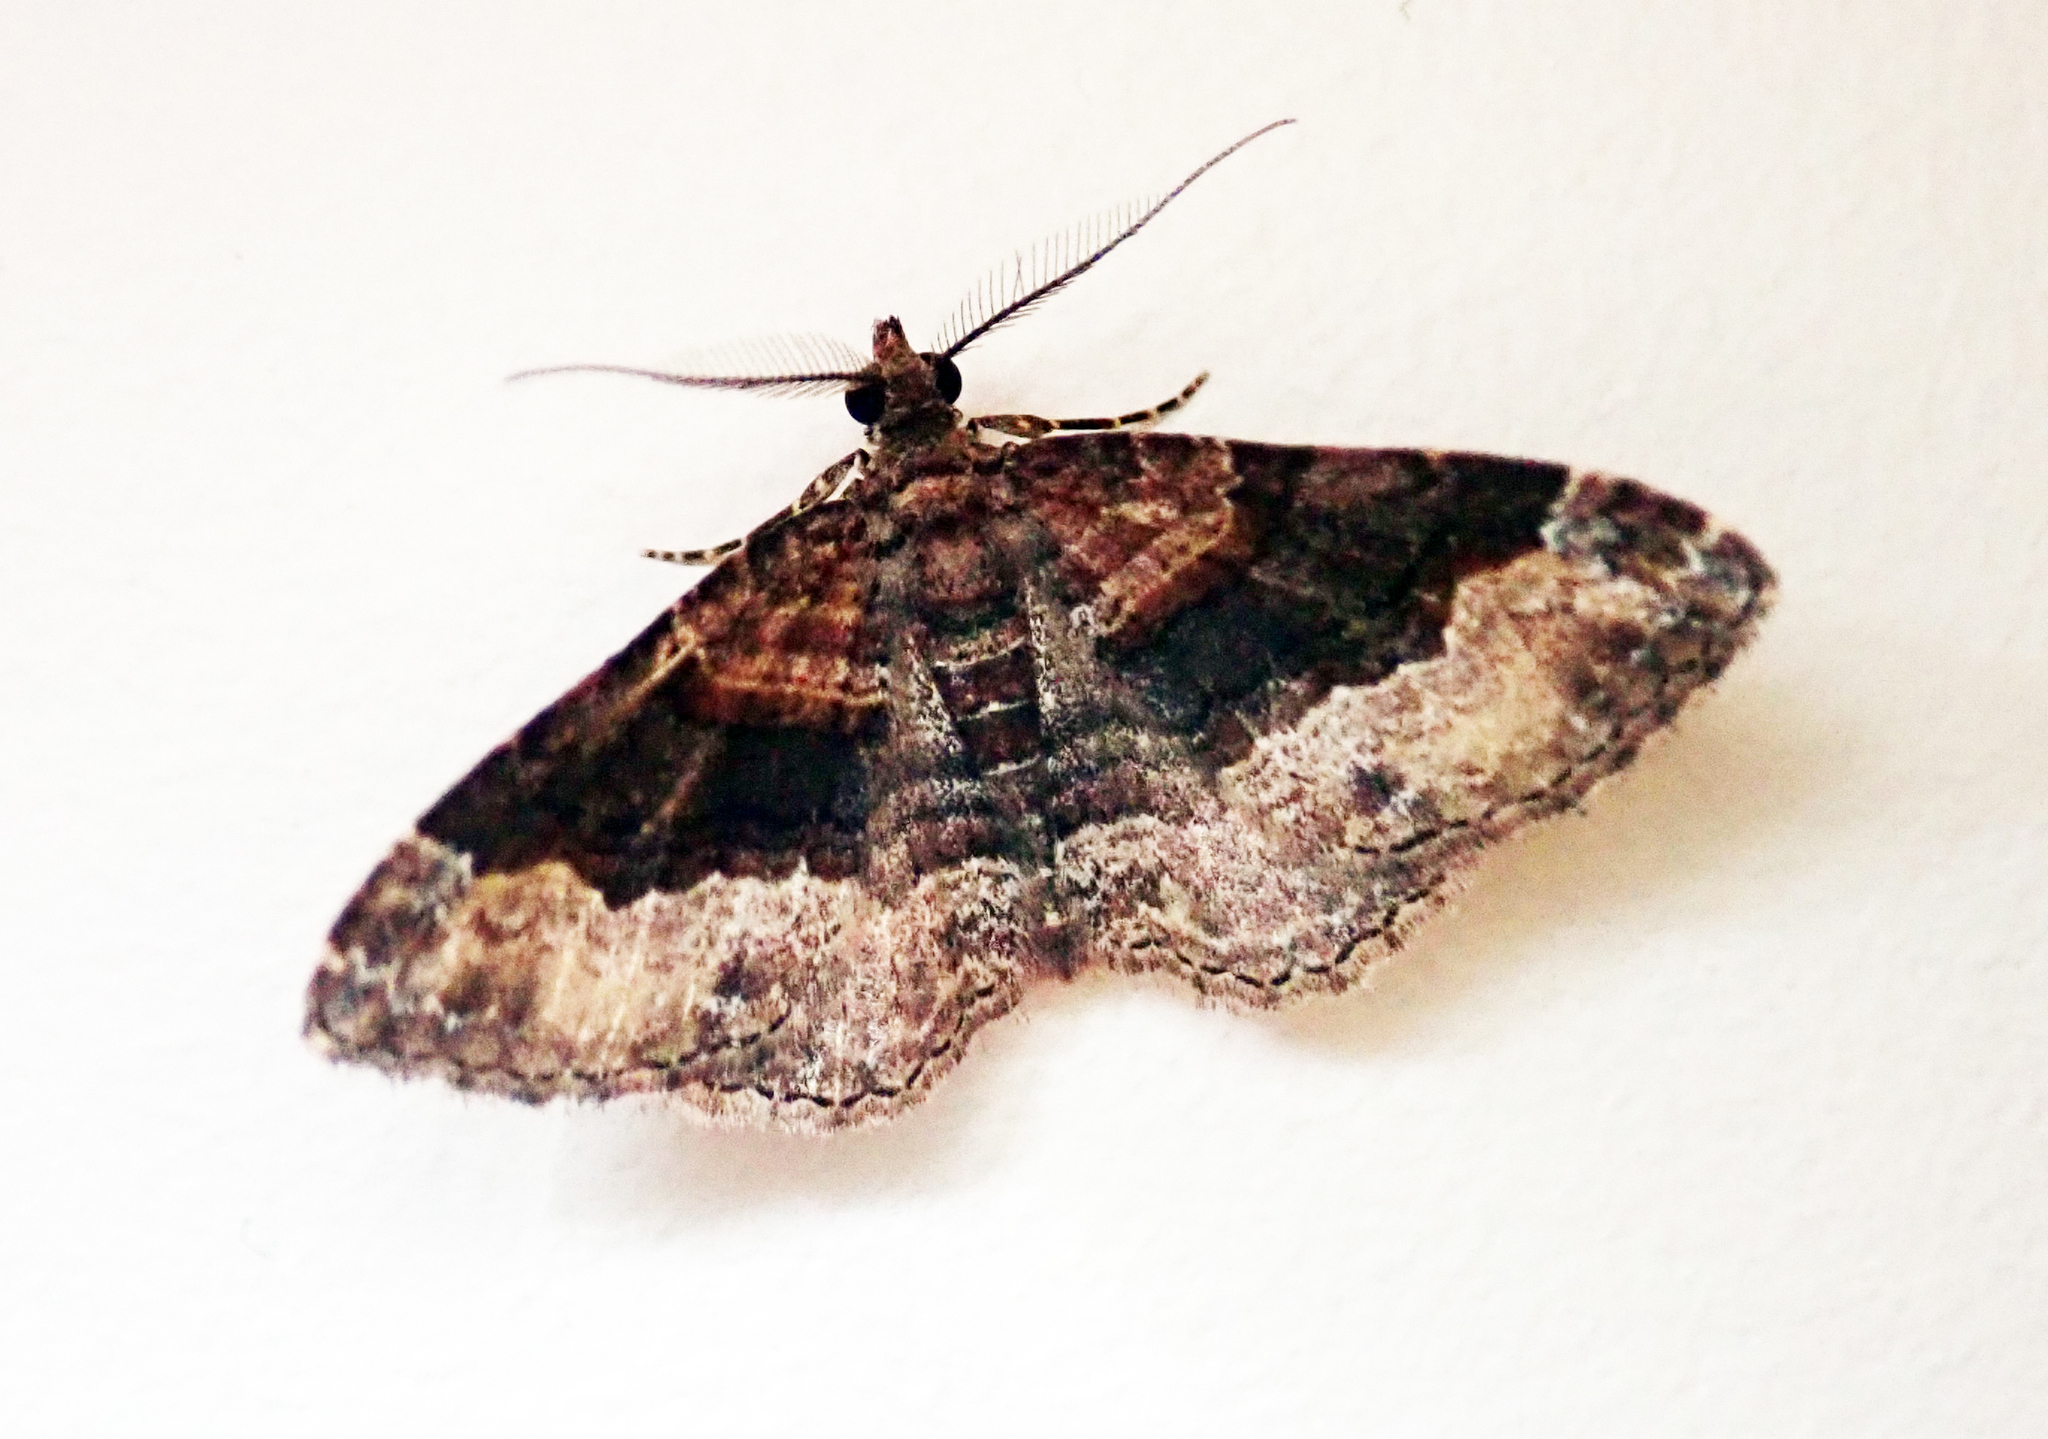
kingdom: Animalia
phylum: Arthropoda
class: Insecta
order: Lepidoptera
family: Geometridae
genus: Epyaxa
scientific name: Epyaxa lucidata
